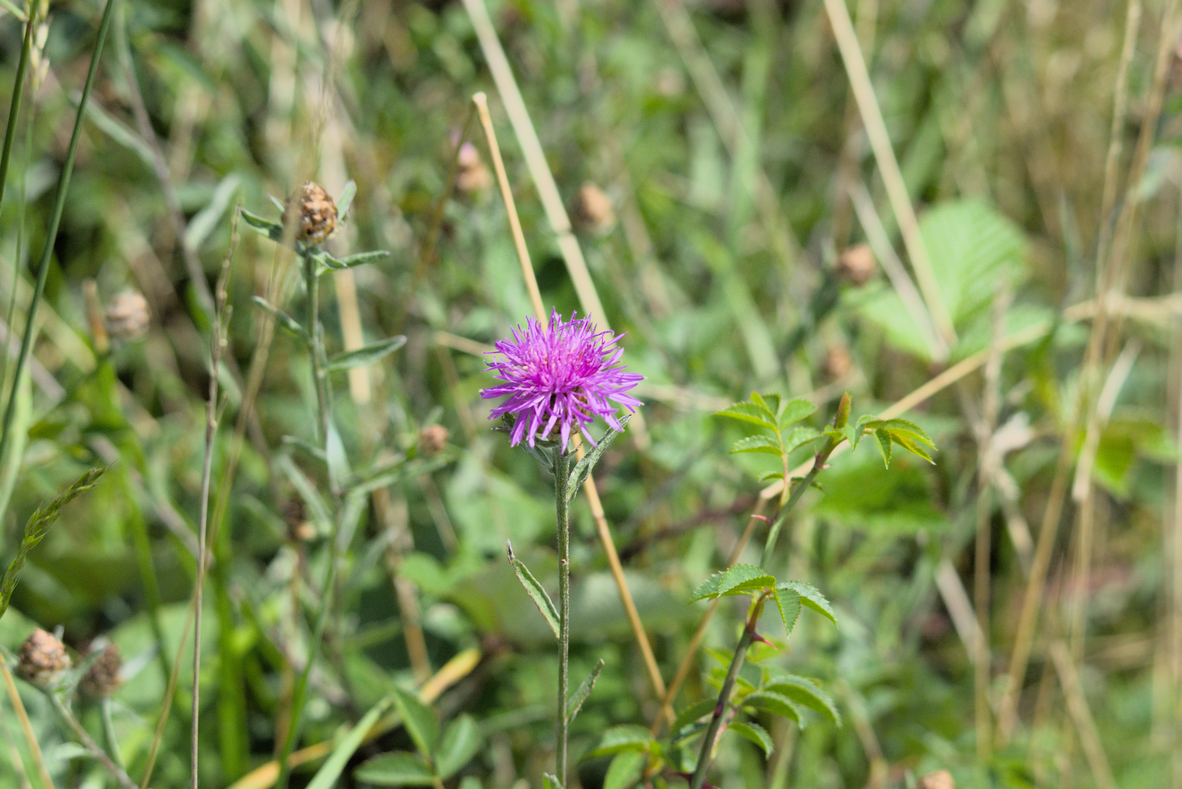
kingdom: Plantae
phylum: Tracheophyta
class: Magnoliopsida
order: Asterales
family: Asteraceae
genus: Centaurea
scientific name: Centaurea jacea
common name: Brown knapweed
